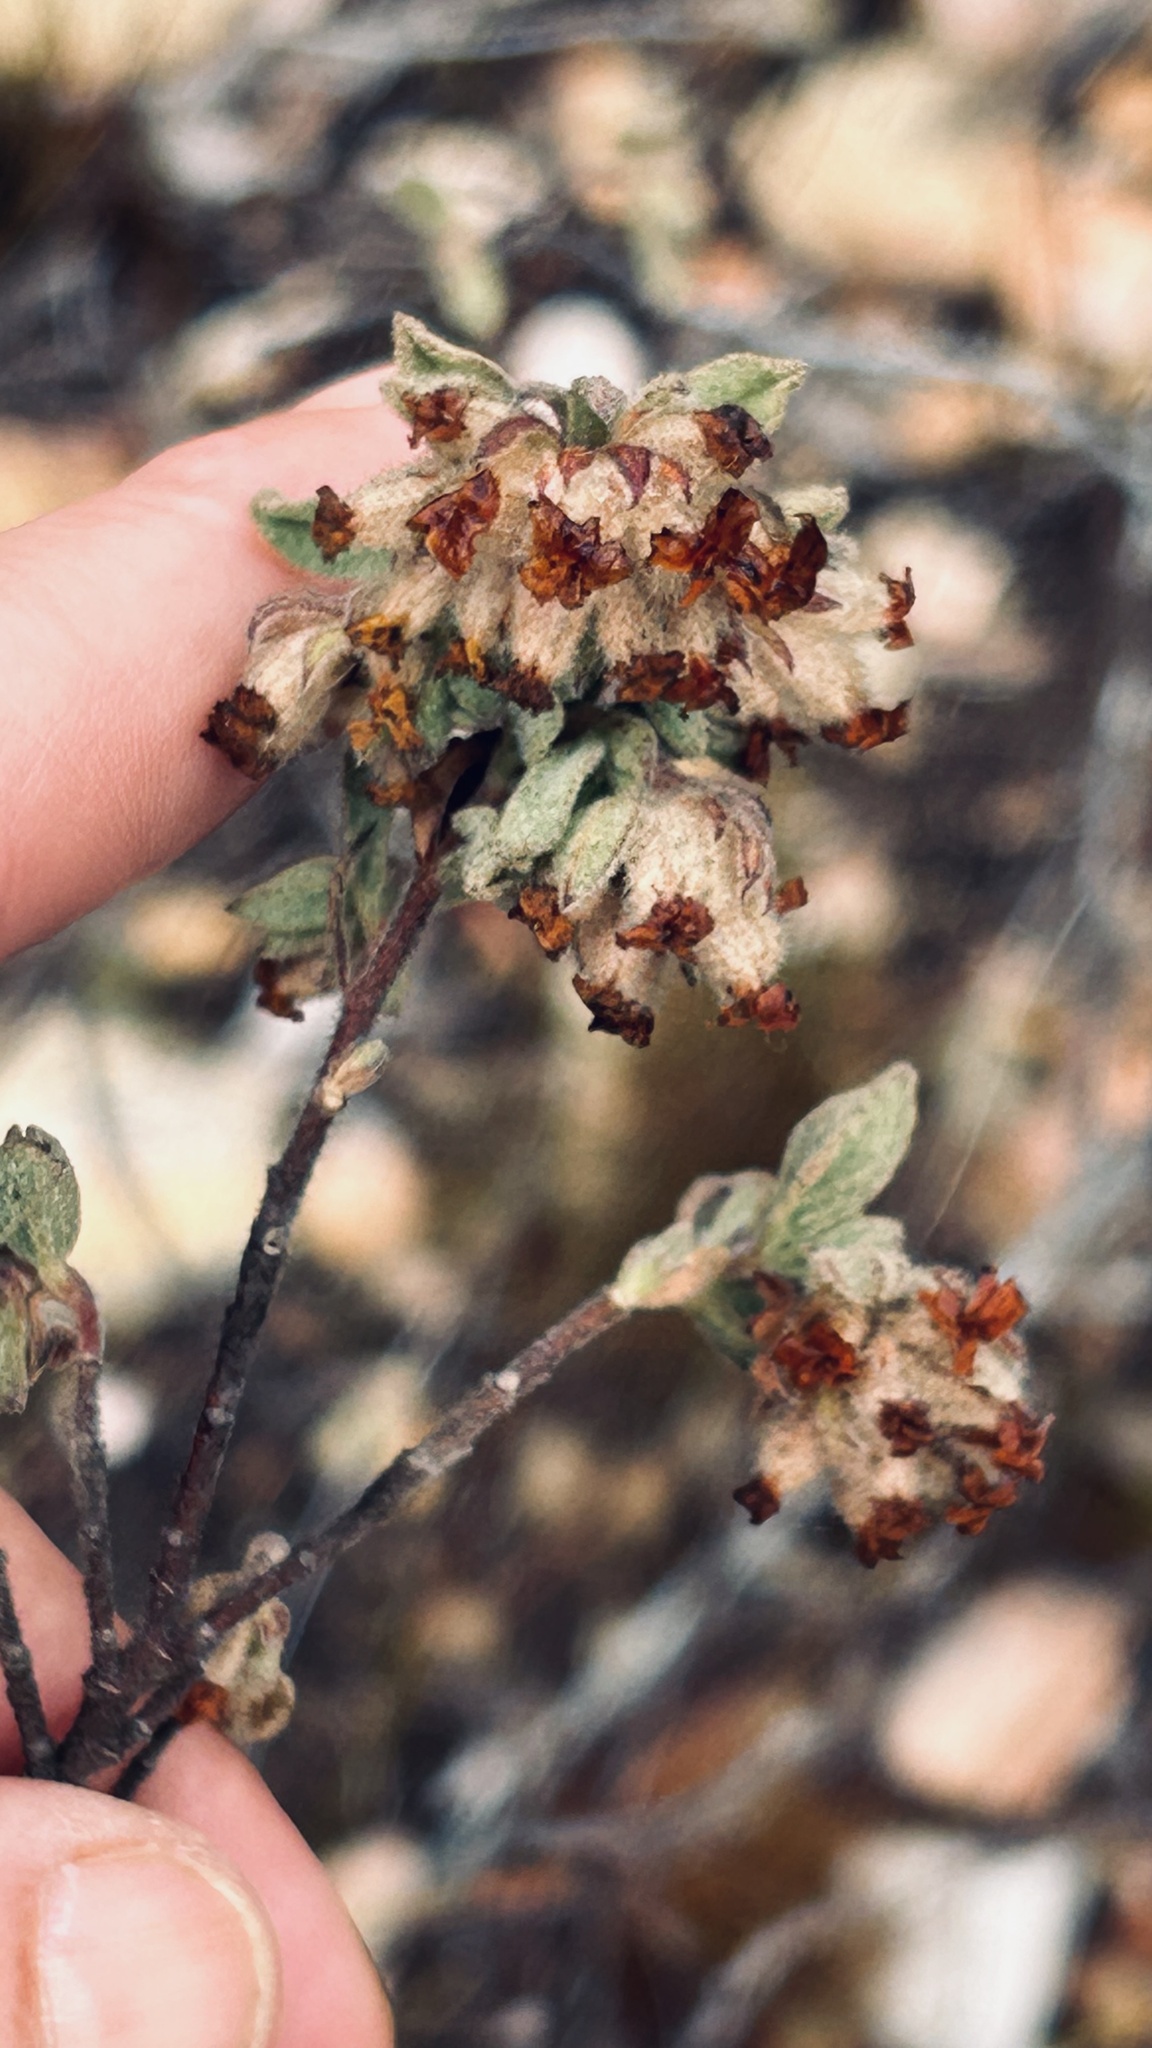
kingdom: Plantae
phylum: Tracheophyta
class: Magnoliopsida
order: Malvales
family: Malvaceae
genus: Hermannia
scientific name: Hermannia salviifolia
